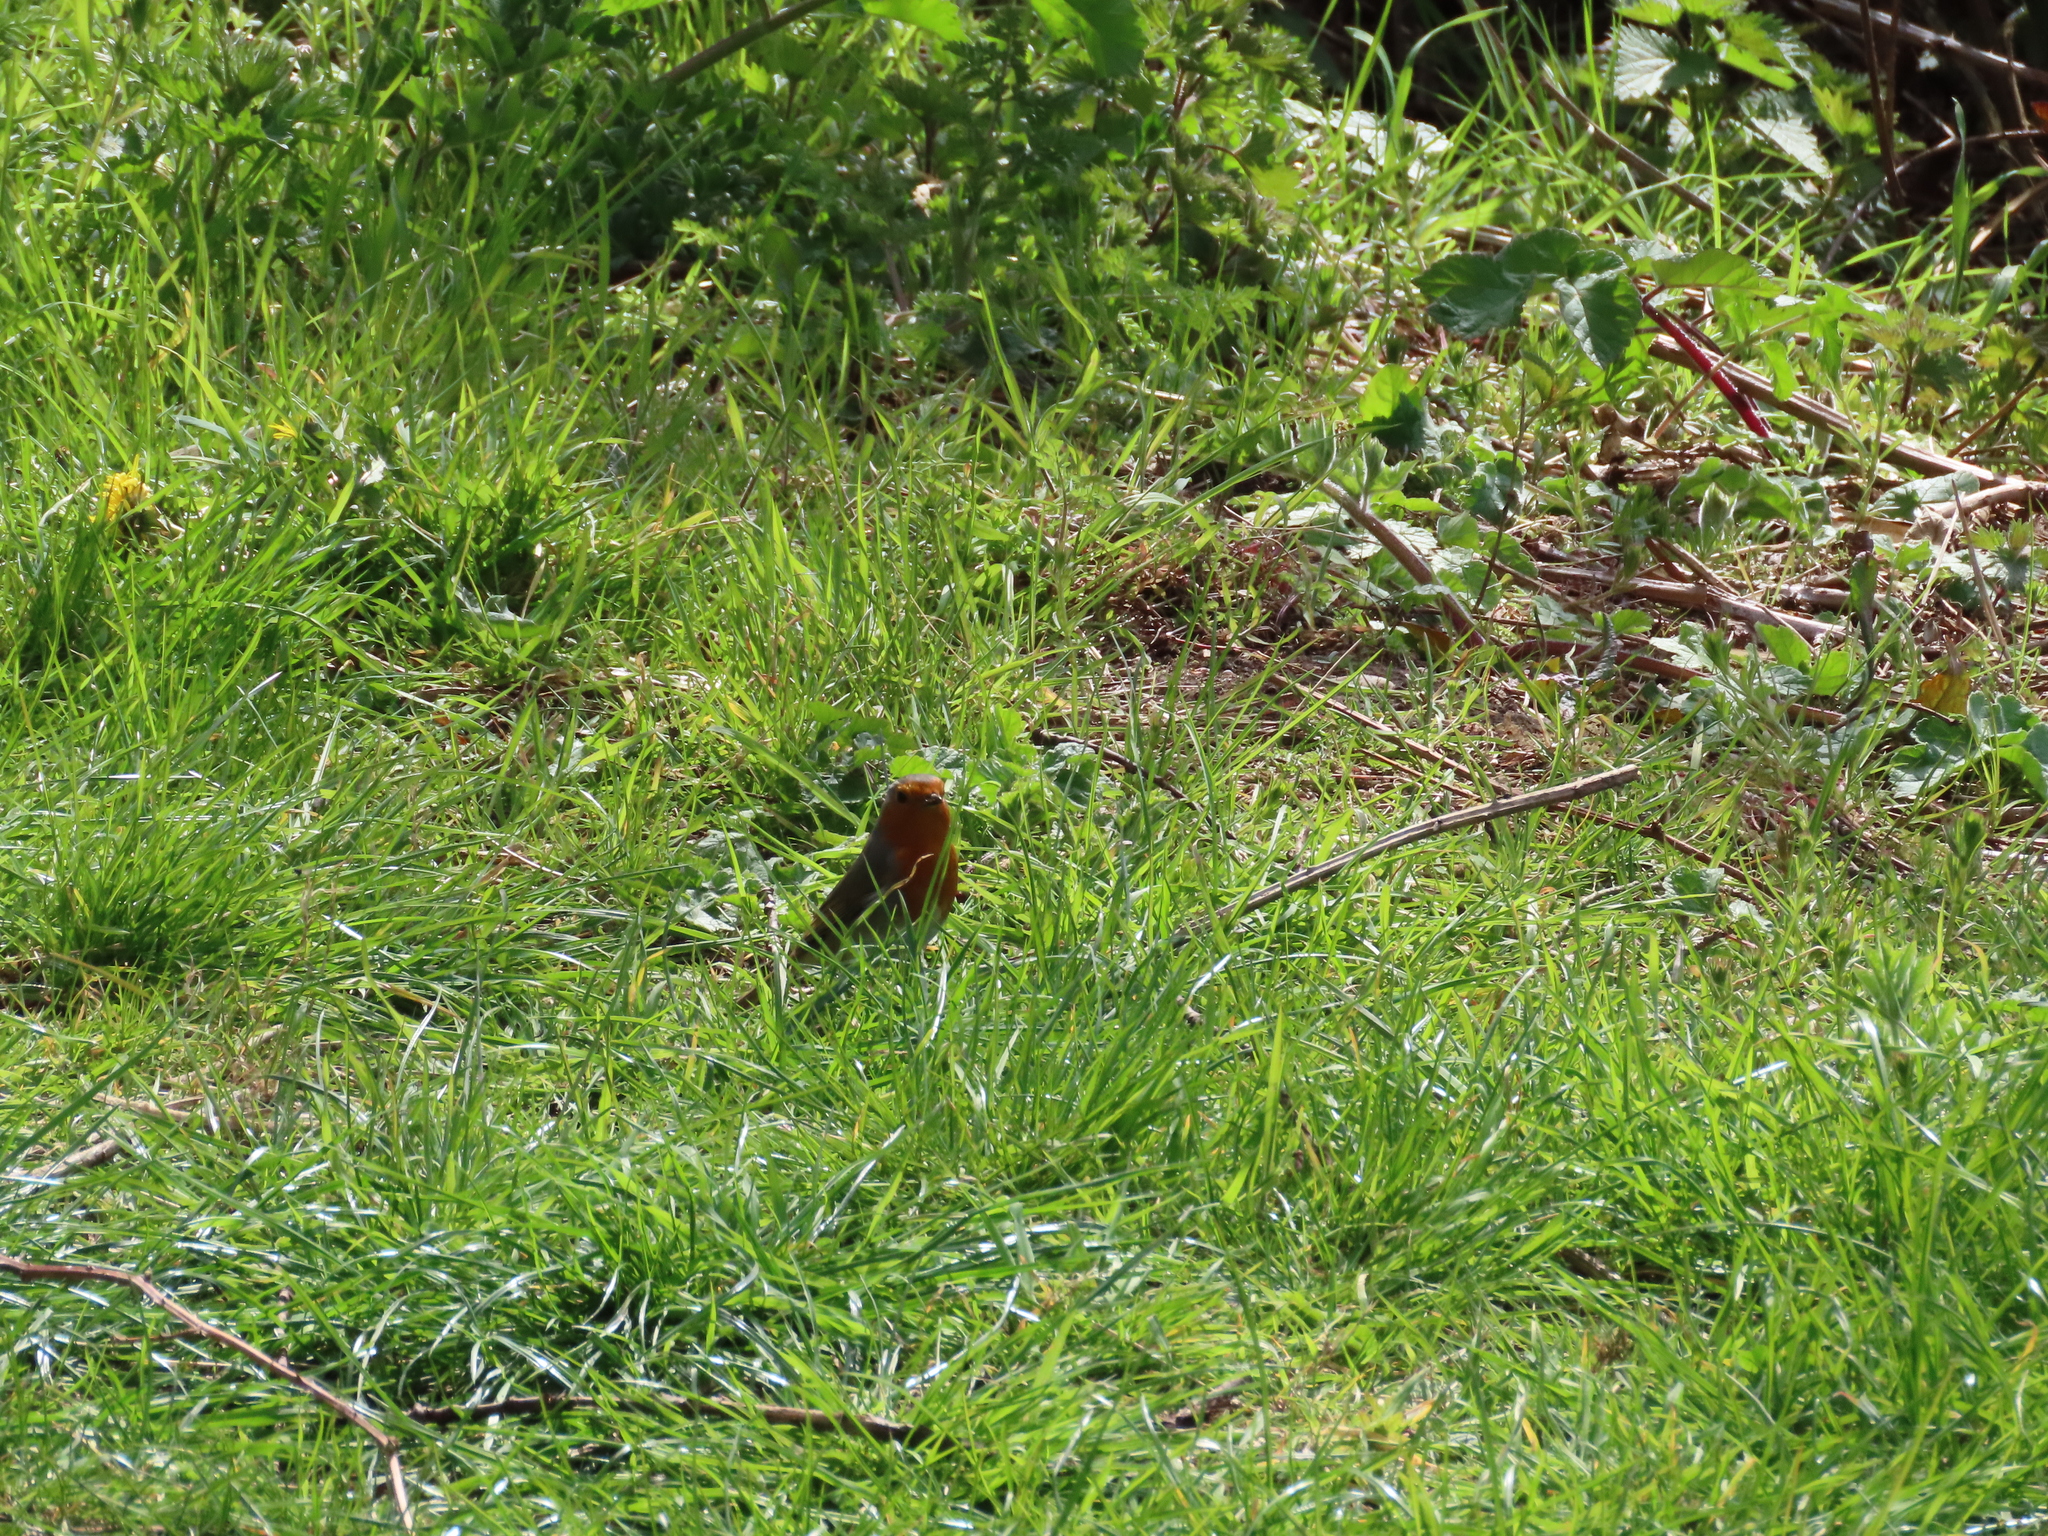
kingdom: Animalia
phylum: Chordata
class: Aves
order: Passeriformes
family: Muscicapidae
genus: Erithacus
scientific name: Erithacus rubecula
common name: European robin
